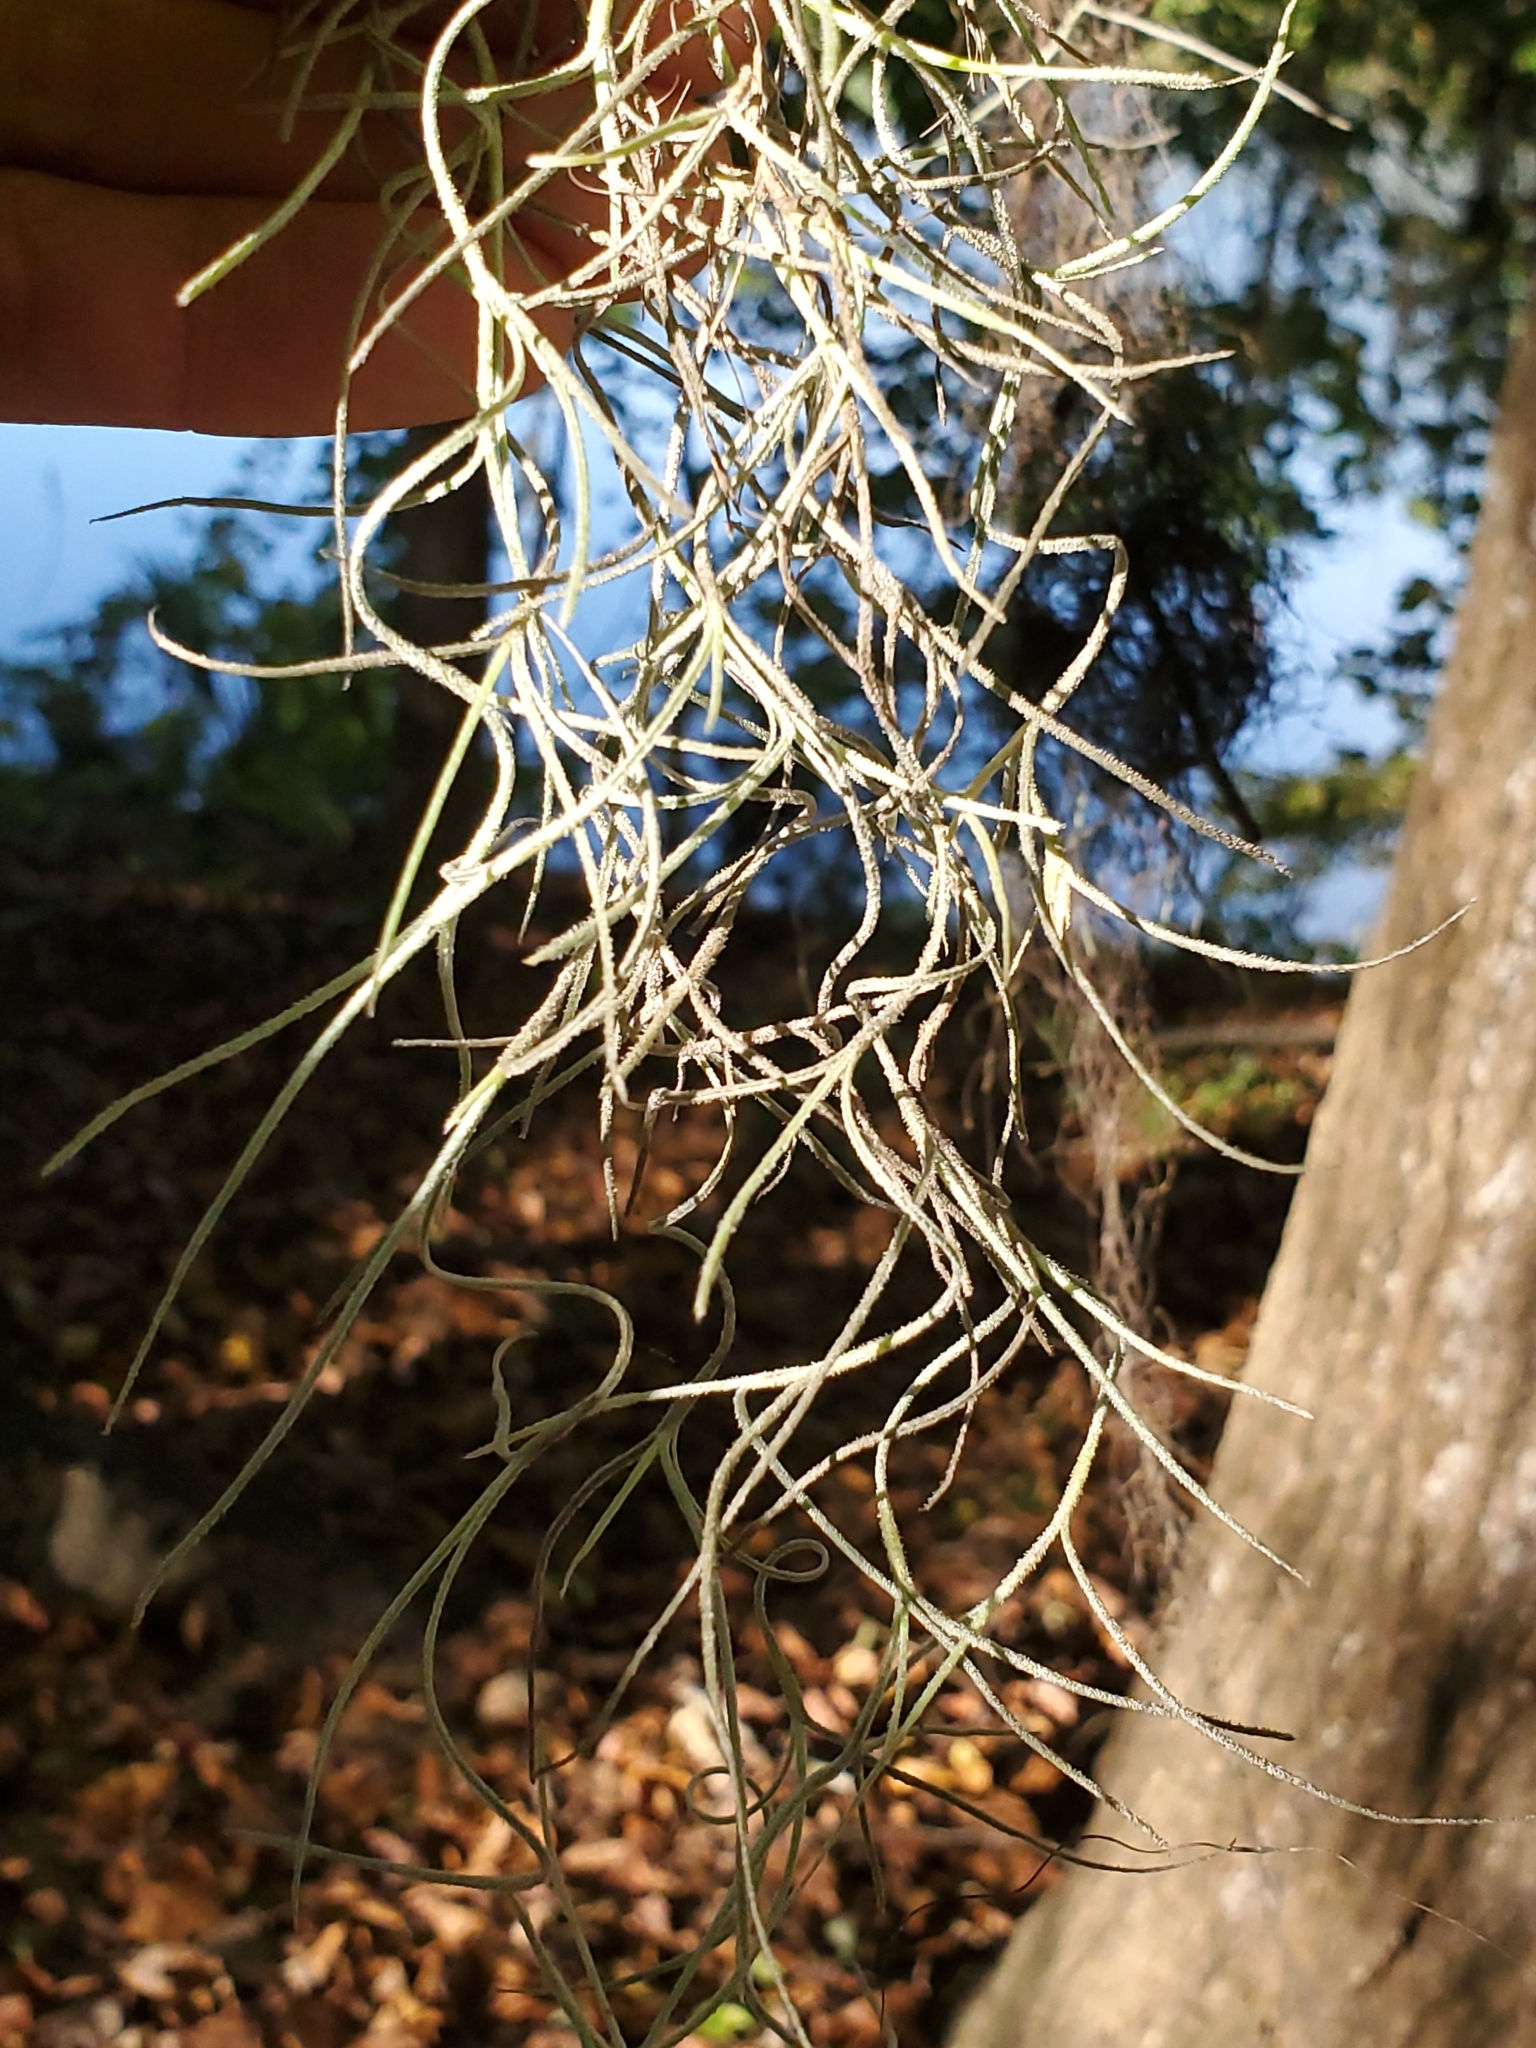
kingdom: Plantae
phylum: Tracheophyta
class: Liliopsida
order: Poales
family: Bromeliaceae
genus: Tillandsia
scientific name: Tillandsia usneoides
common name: Spanish moss
